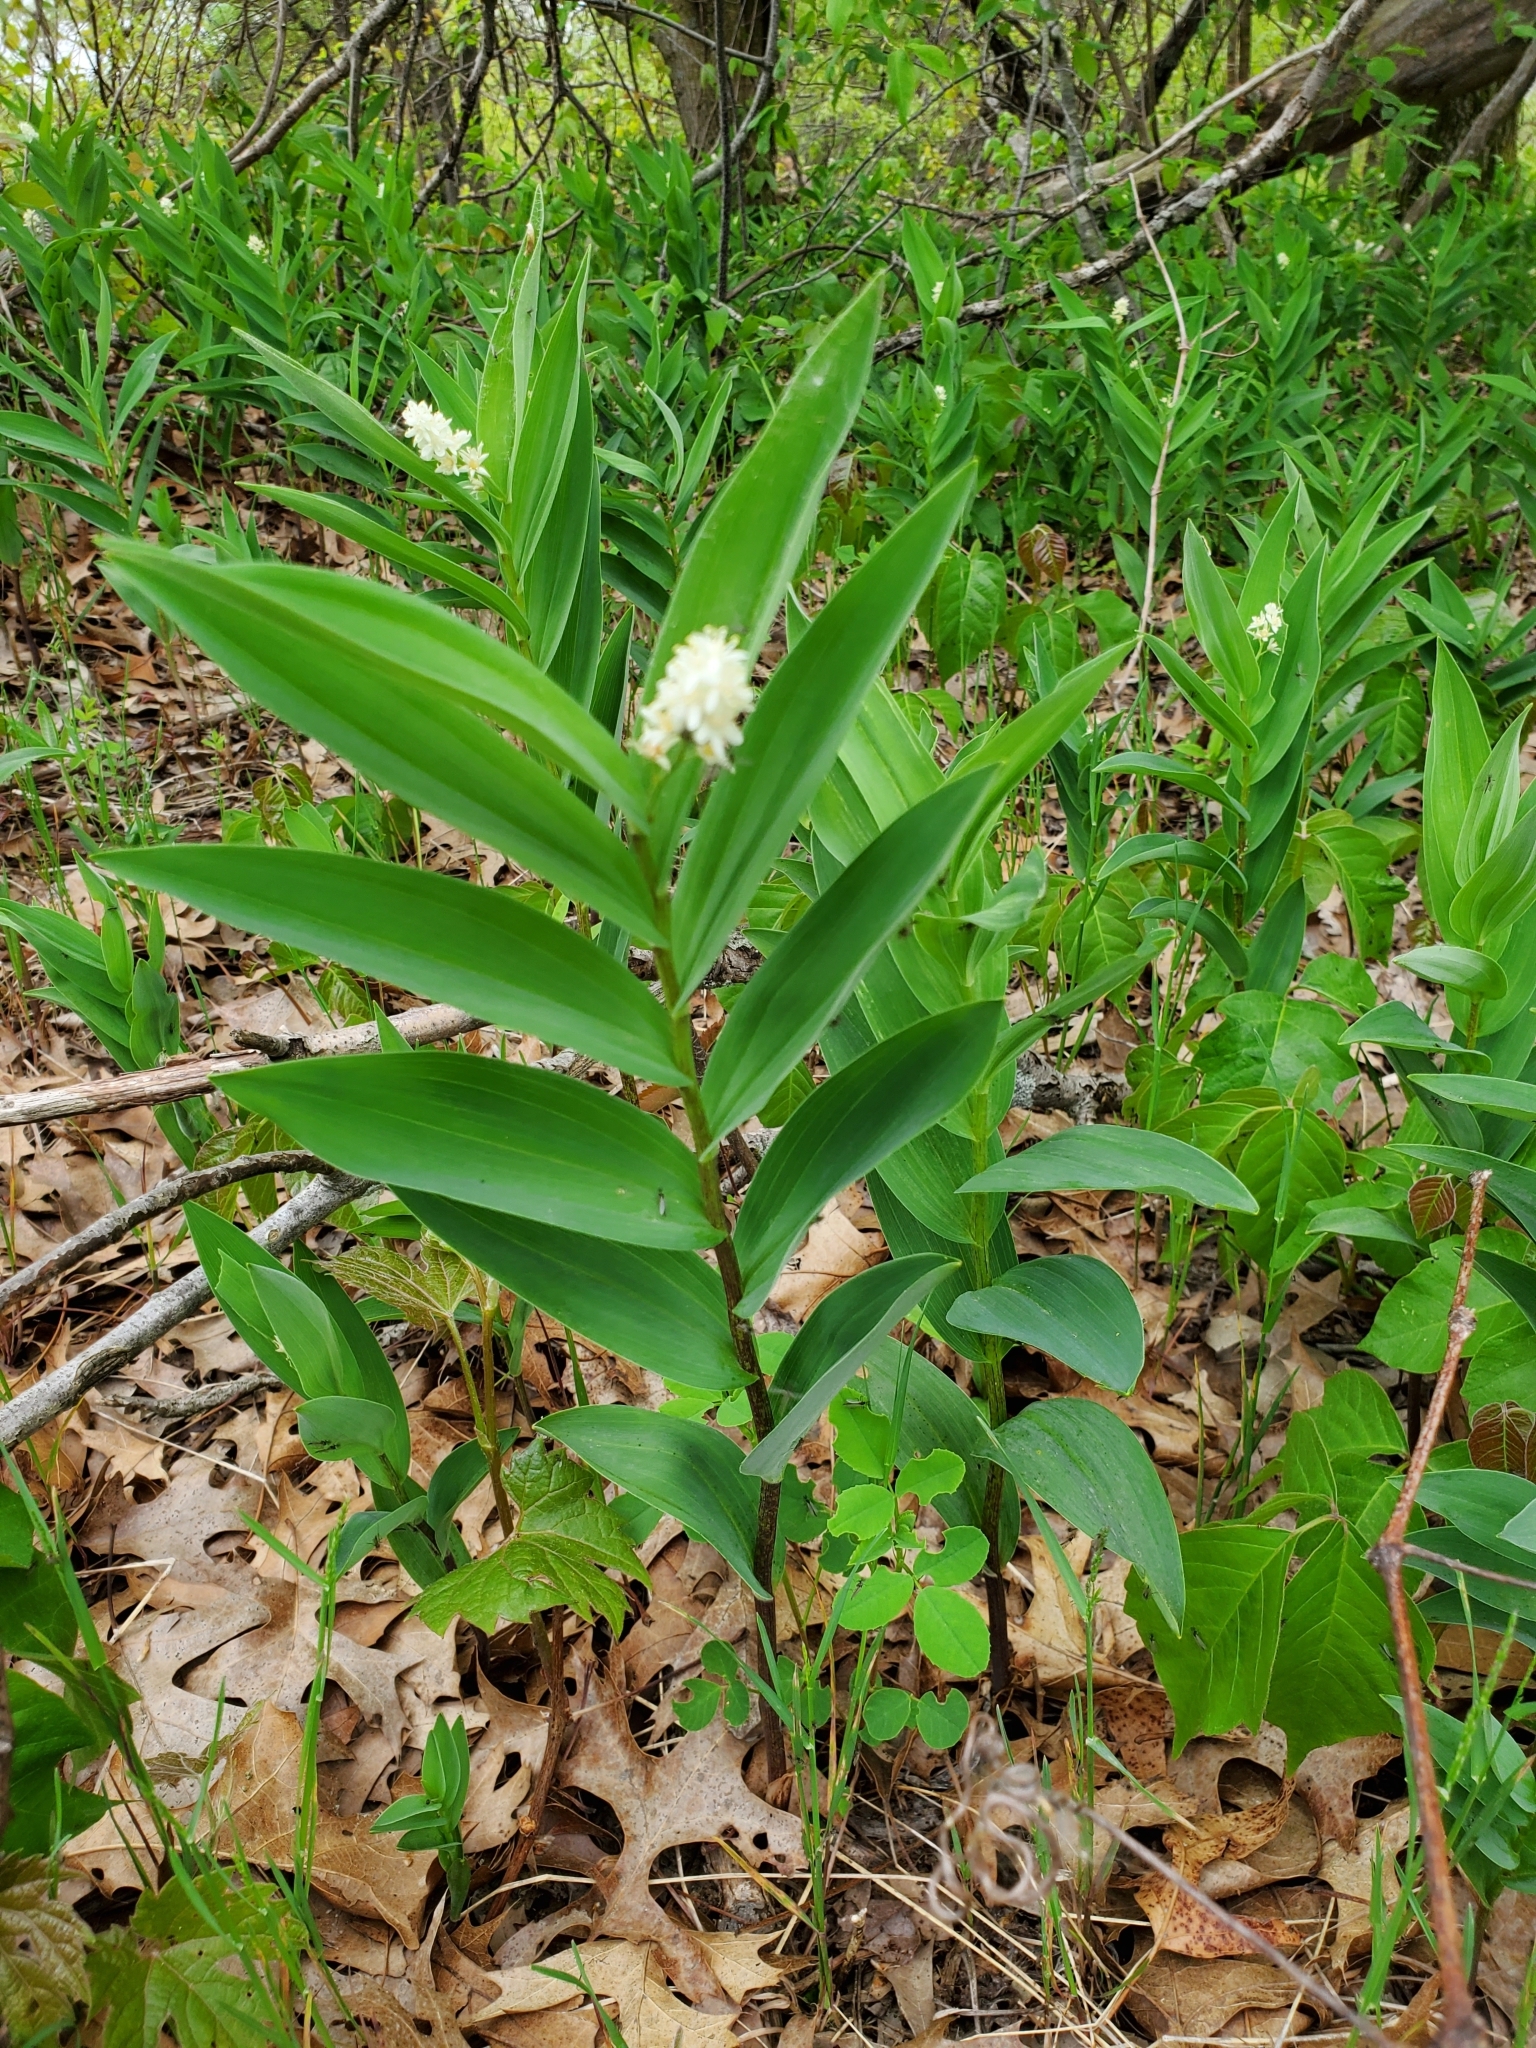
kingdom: Plantae
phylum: Tracheophyta
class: Liliopsida
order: Asparagales
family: Asparagaceae
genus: Maianthemum
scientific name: Maianthemum stellatum
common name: Little false solomon's seal
